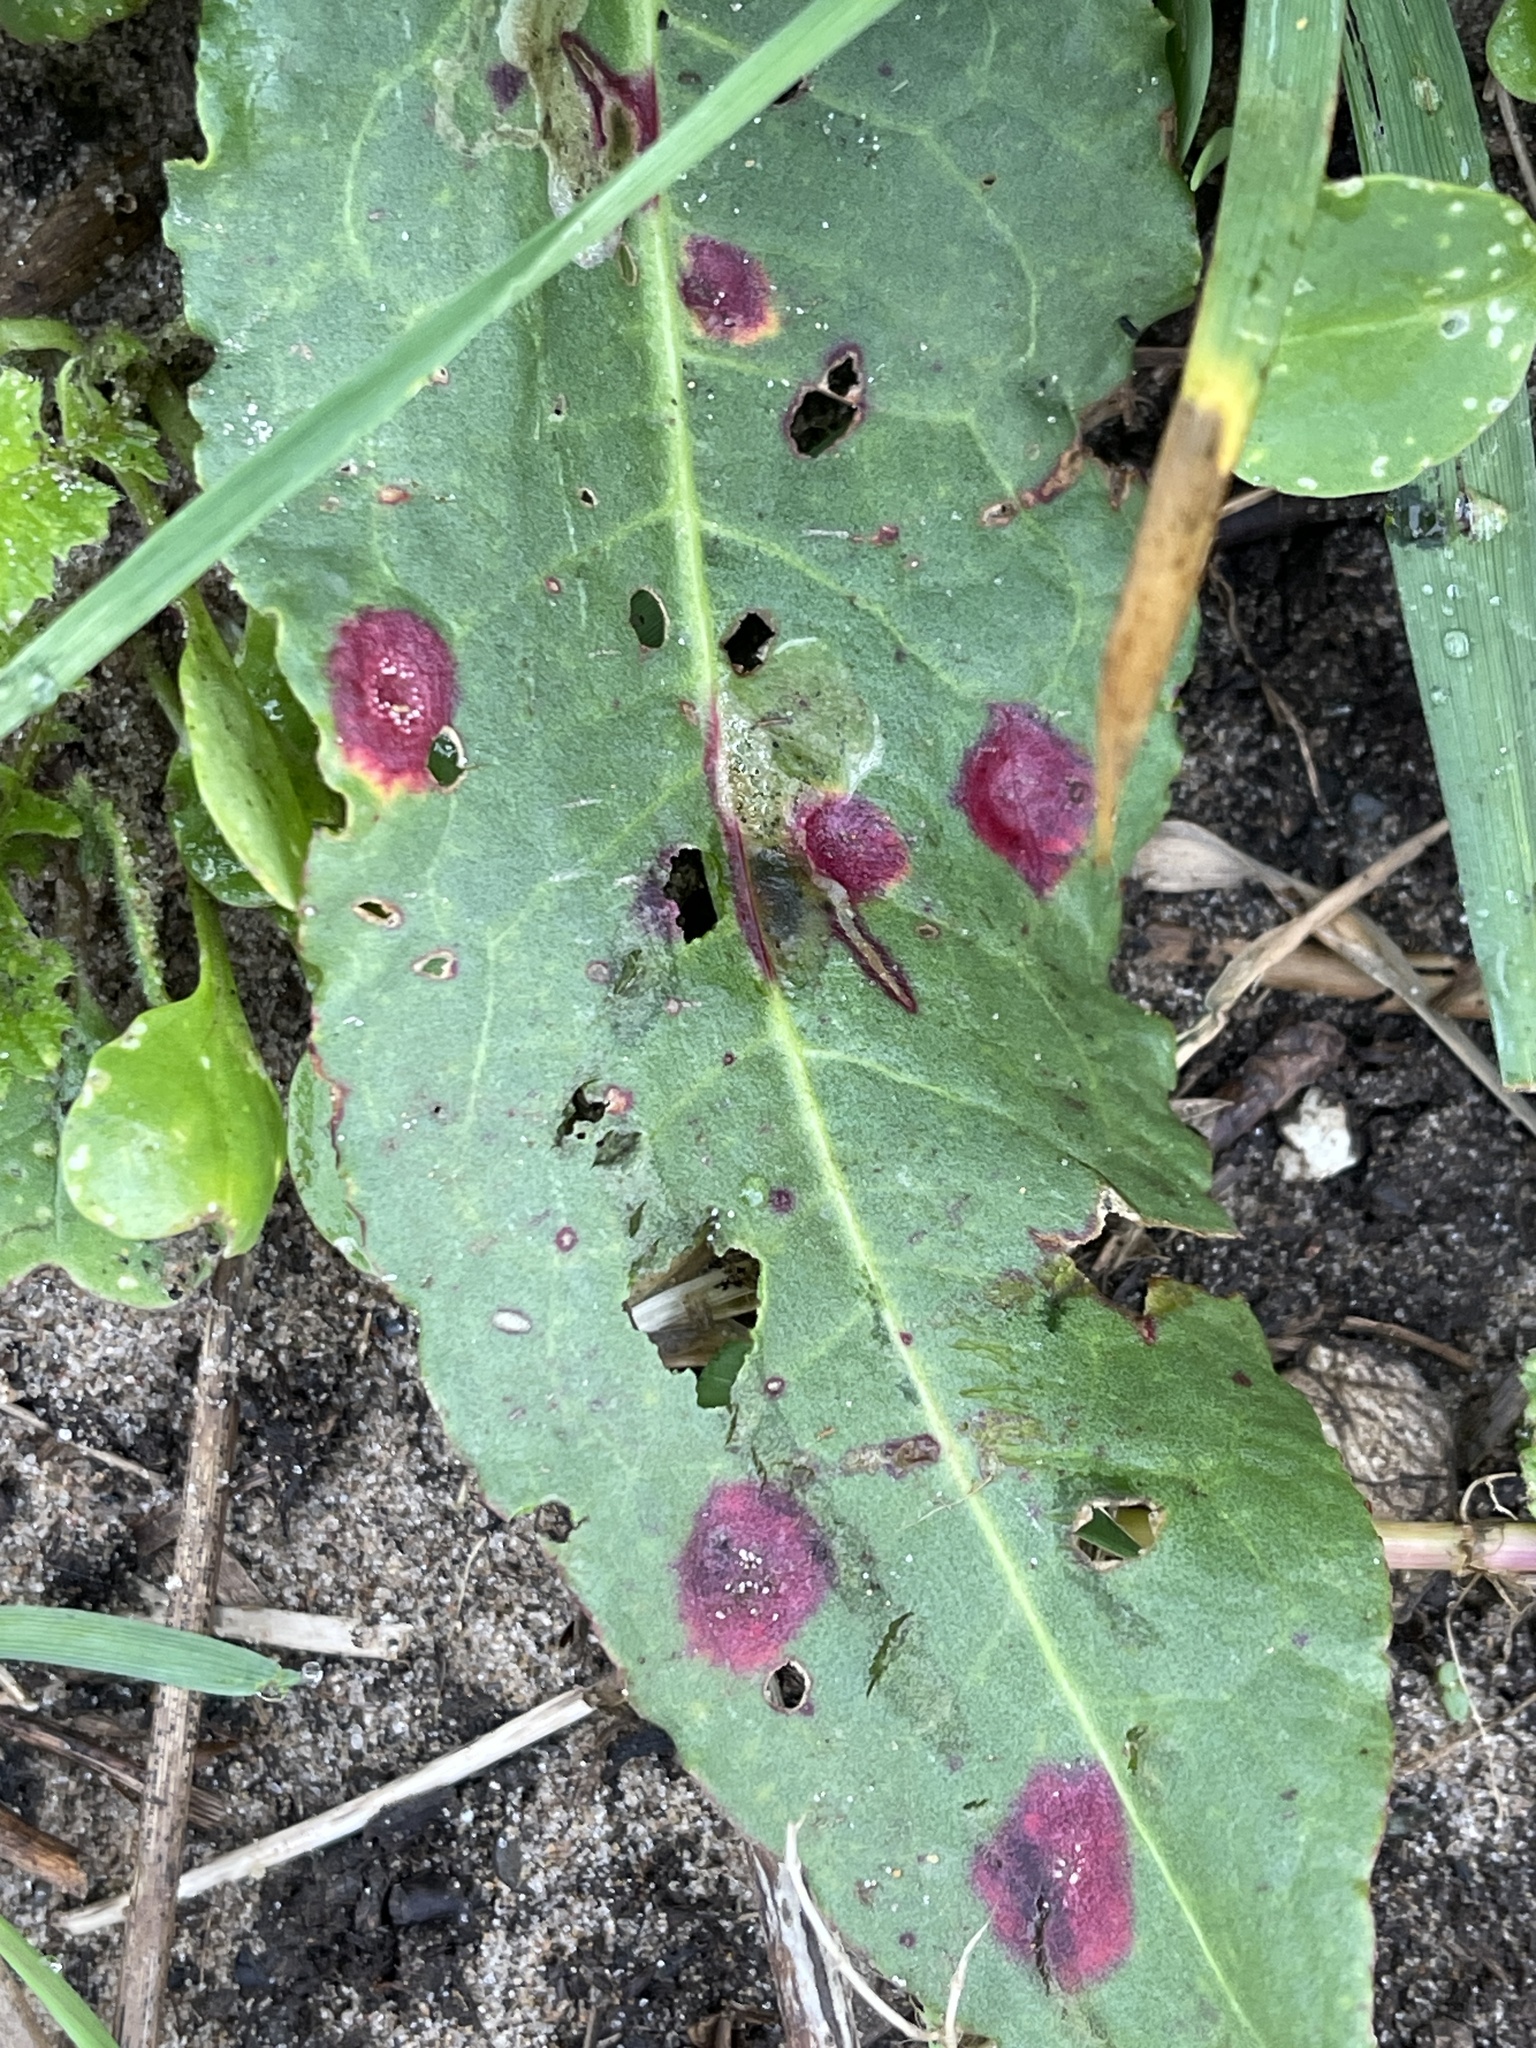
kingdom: Fungi
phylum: Ascomycota
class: Dothideomycetes
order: Mycosphaerellales
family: Mycosphaerellaceae
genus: Ramularia
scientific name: Ramularia rubella
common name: Red dock spot
